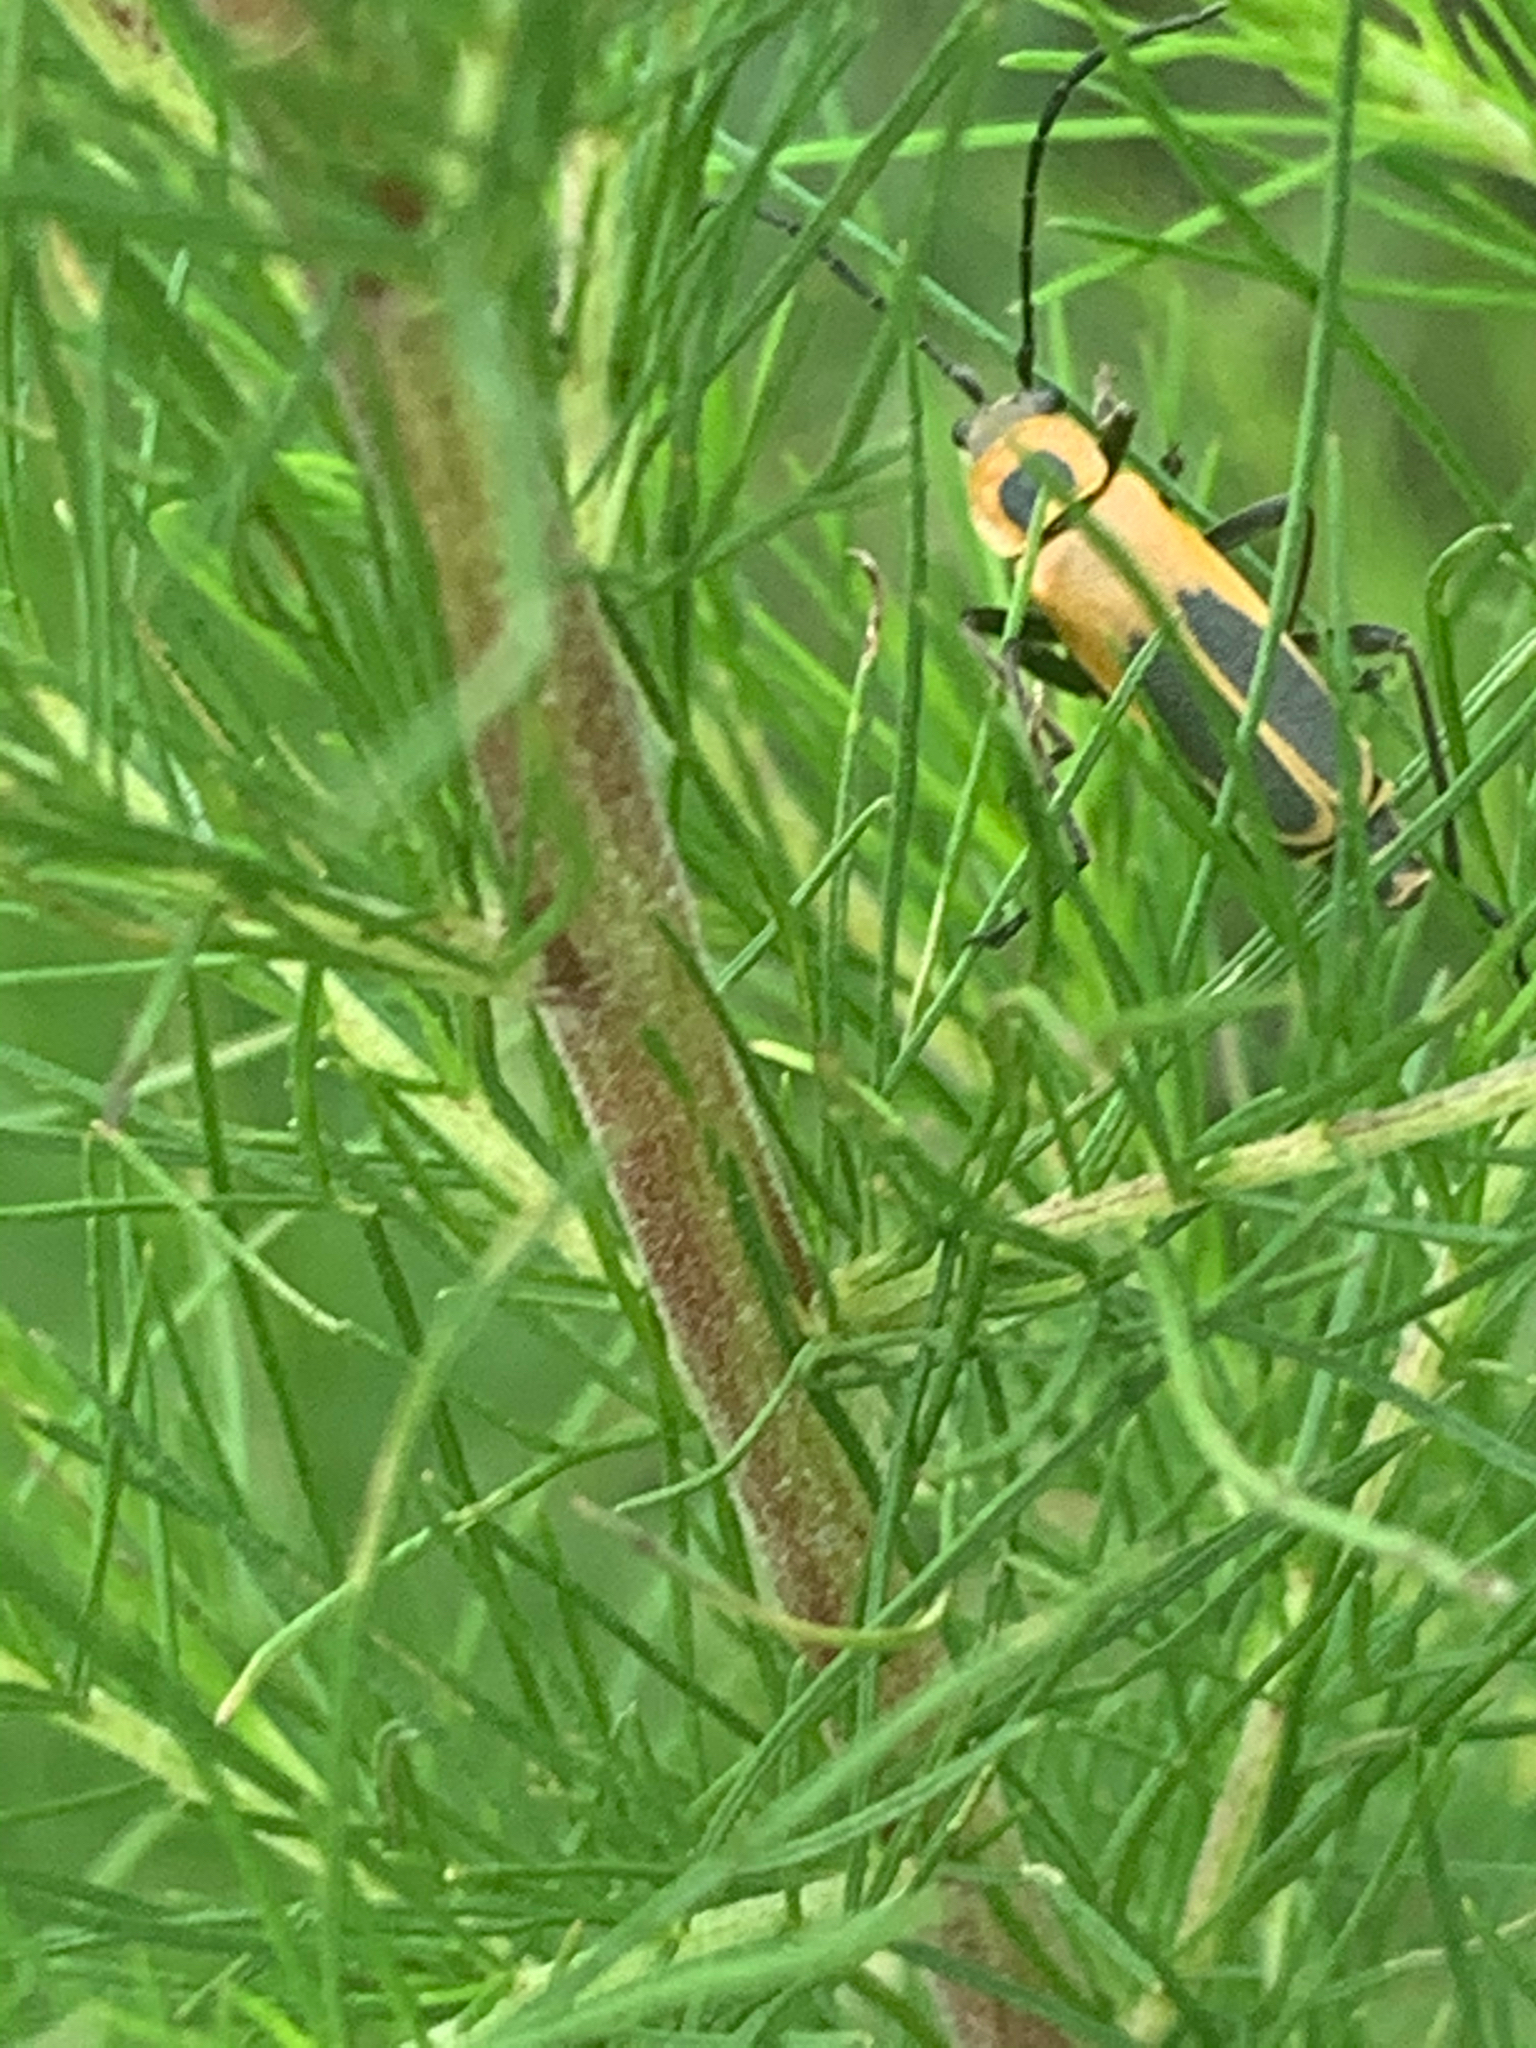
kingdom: Animalia
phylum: Arthropoda
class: Insecta
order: Coleoptera
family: Cantharidae
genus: Chauliognathus
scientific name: Chauliognathus pensylvanicus
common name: Goldenrod soldier beetle
